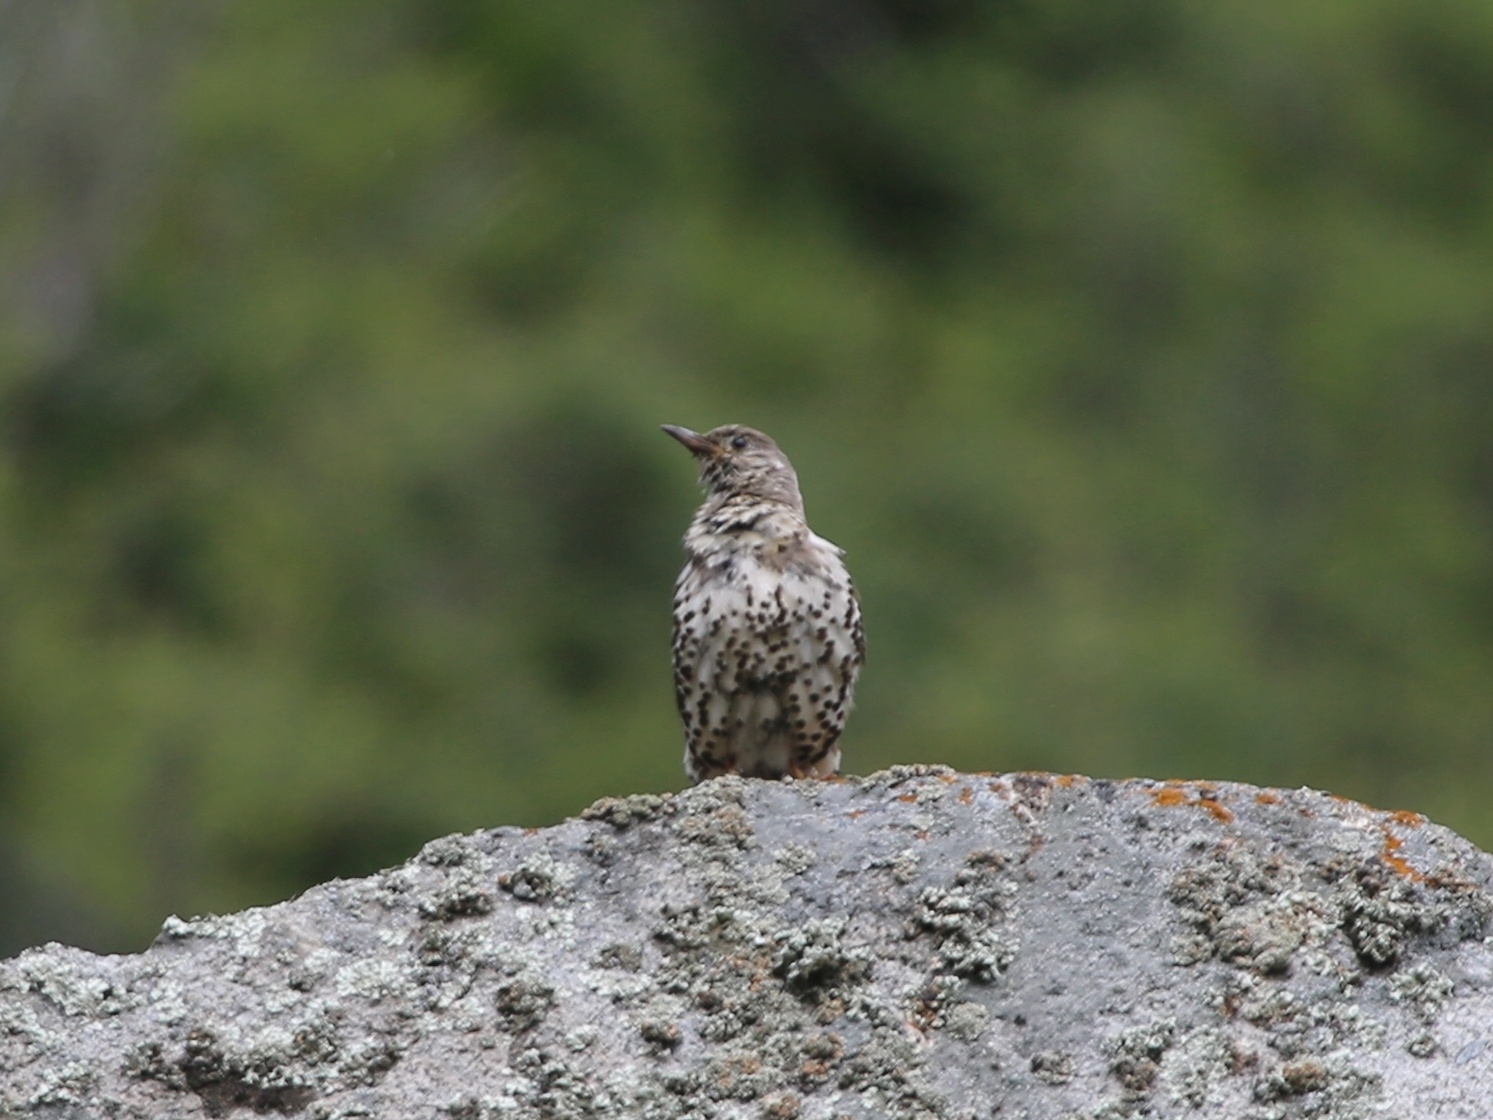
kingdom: Animalia
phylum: Chordata
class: Aves
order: Passeriformes
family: Turdidae
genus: Turdus
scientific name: Turdus viscivorus
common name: Mistle thrush
